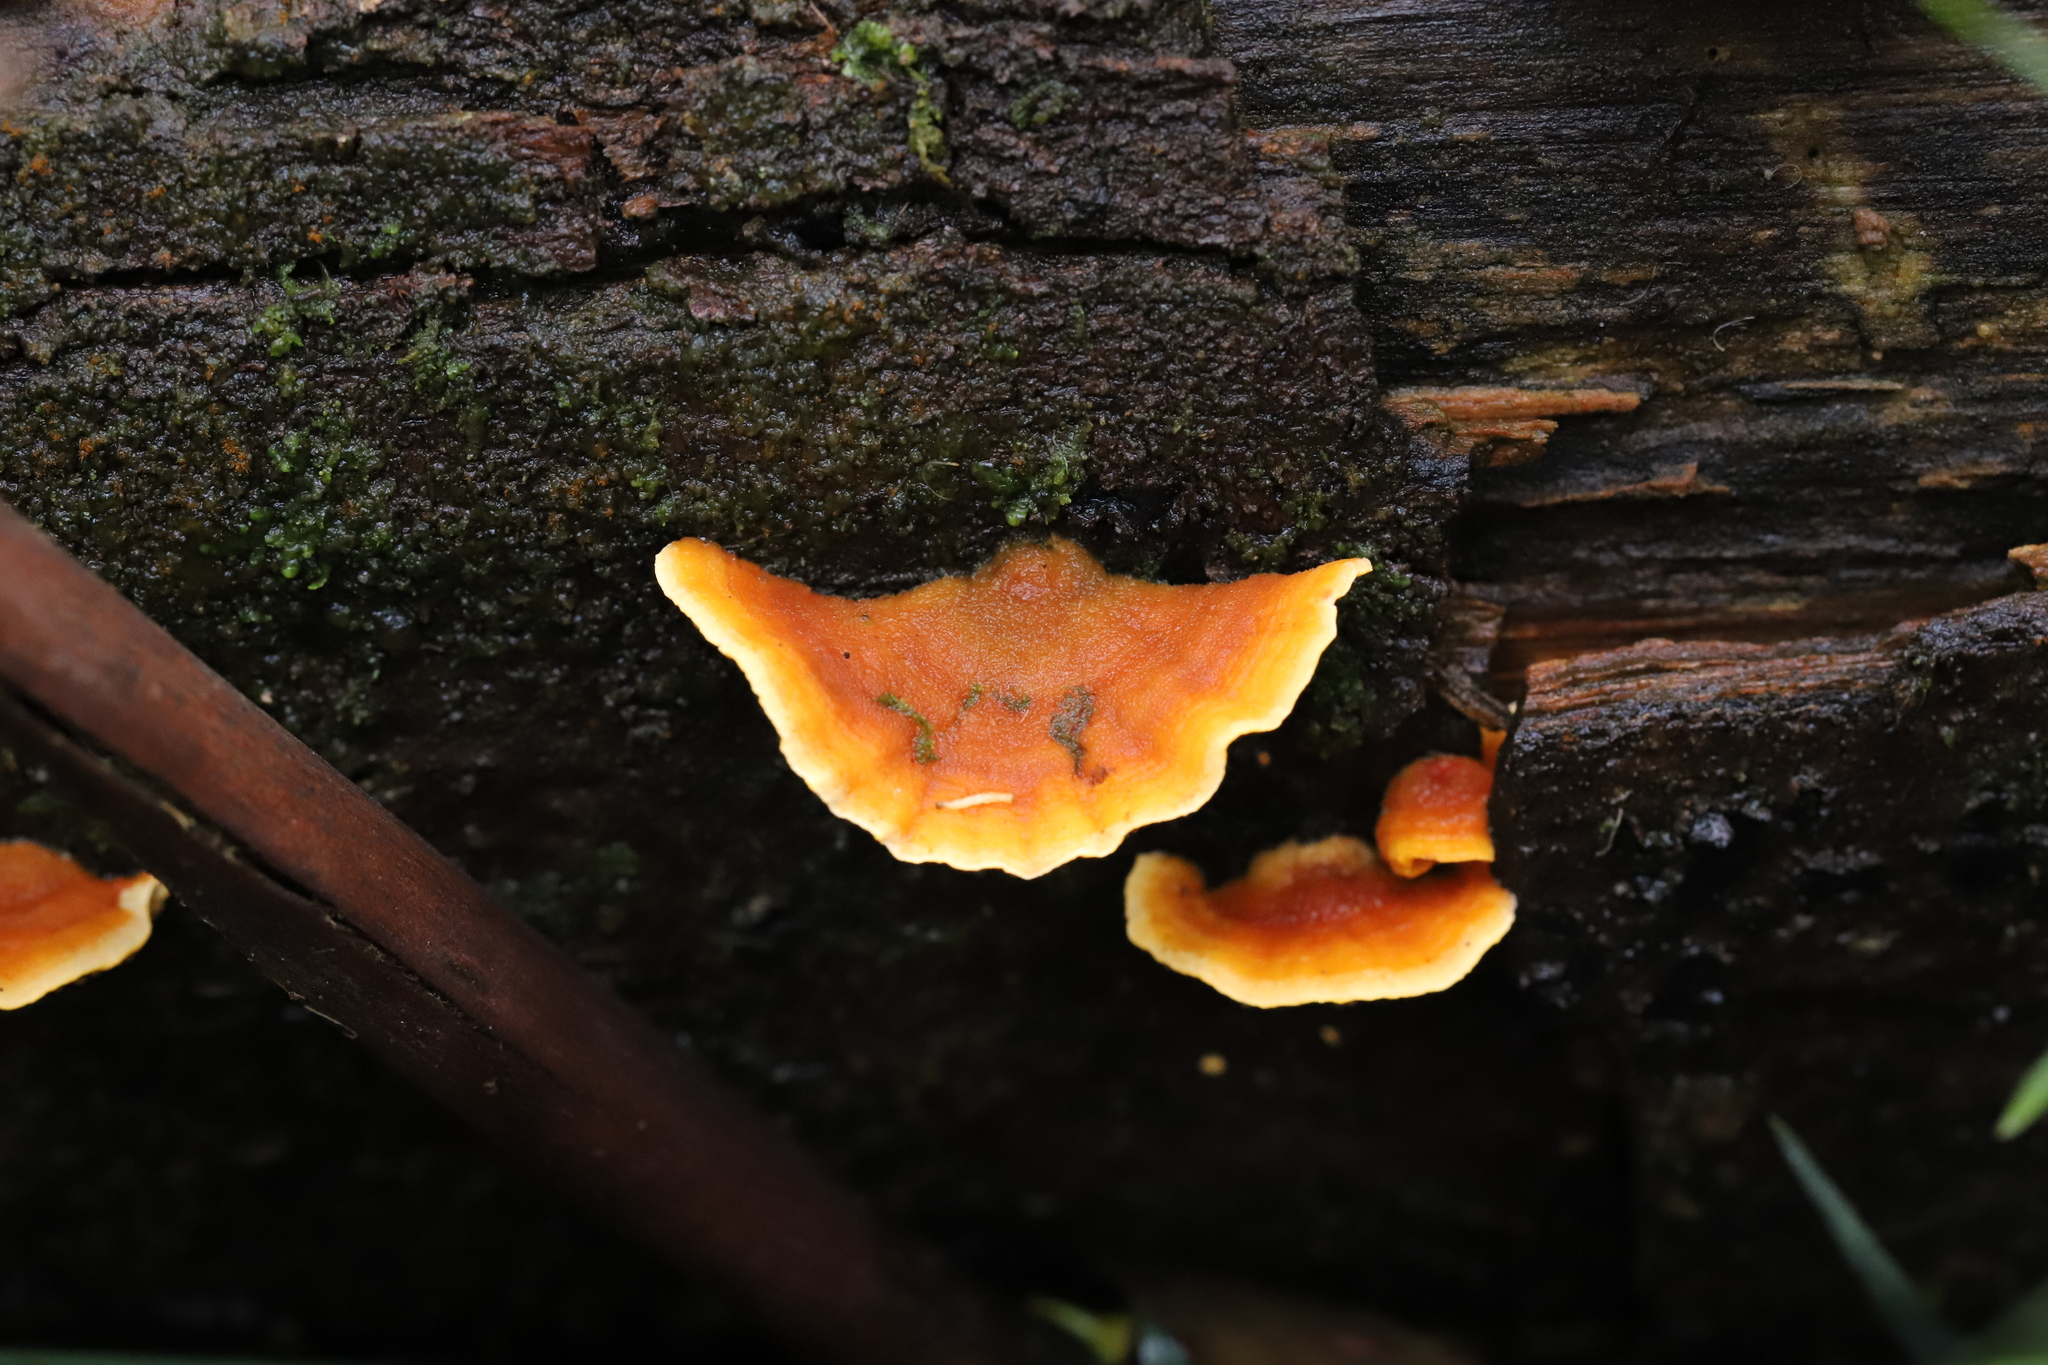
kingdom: Fungi
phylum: Basidiomycota
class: Agaricomycetes
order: Russulales
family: Stereaceae
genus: Stereum
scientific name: Stereum versicolor
